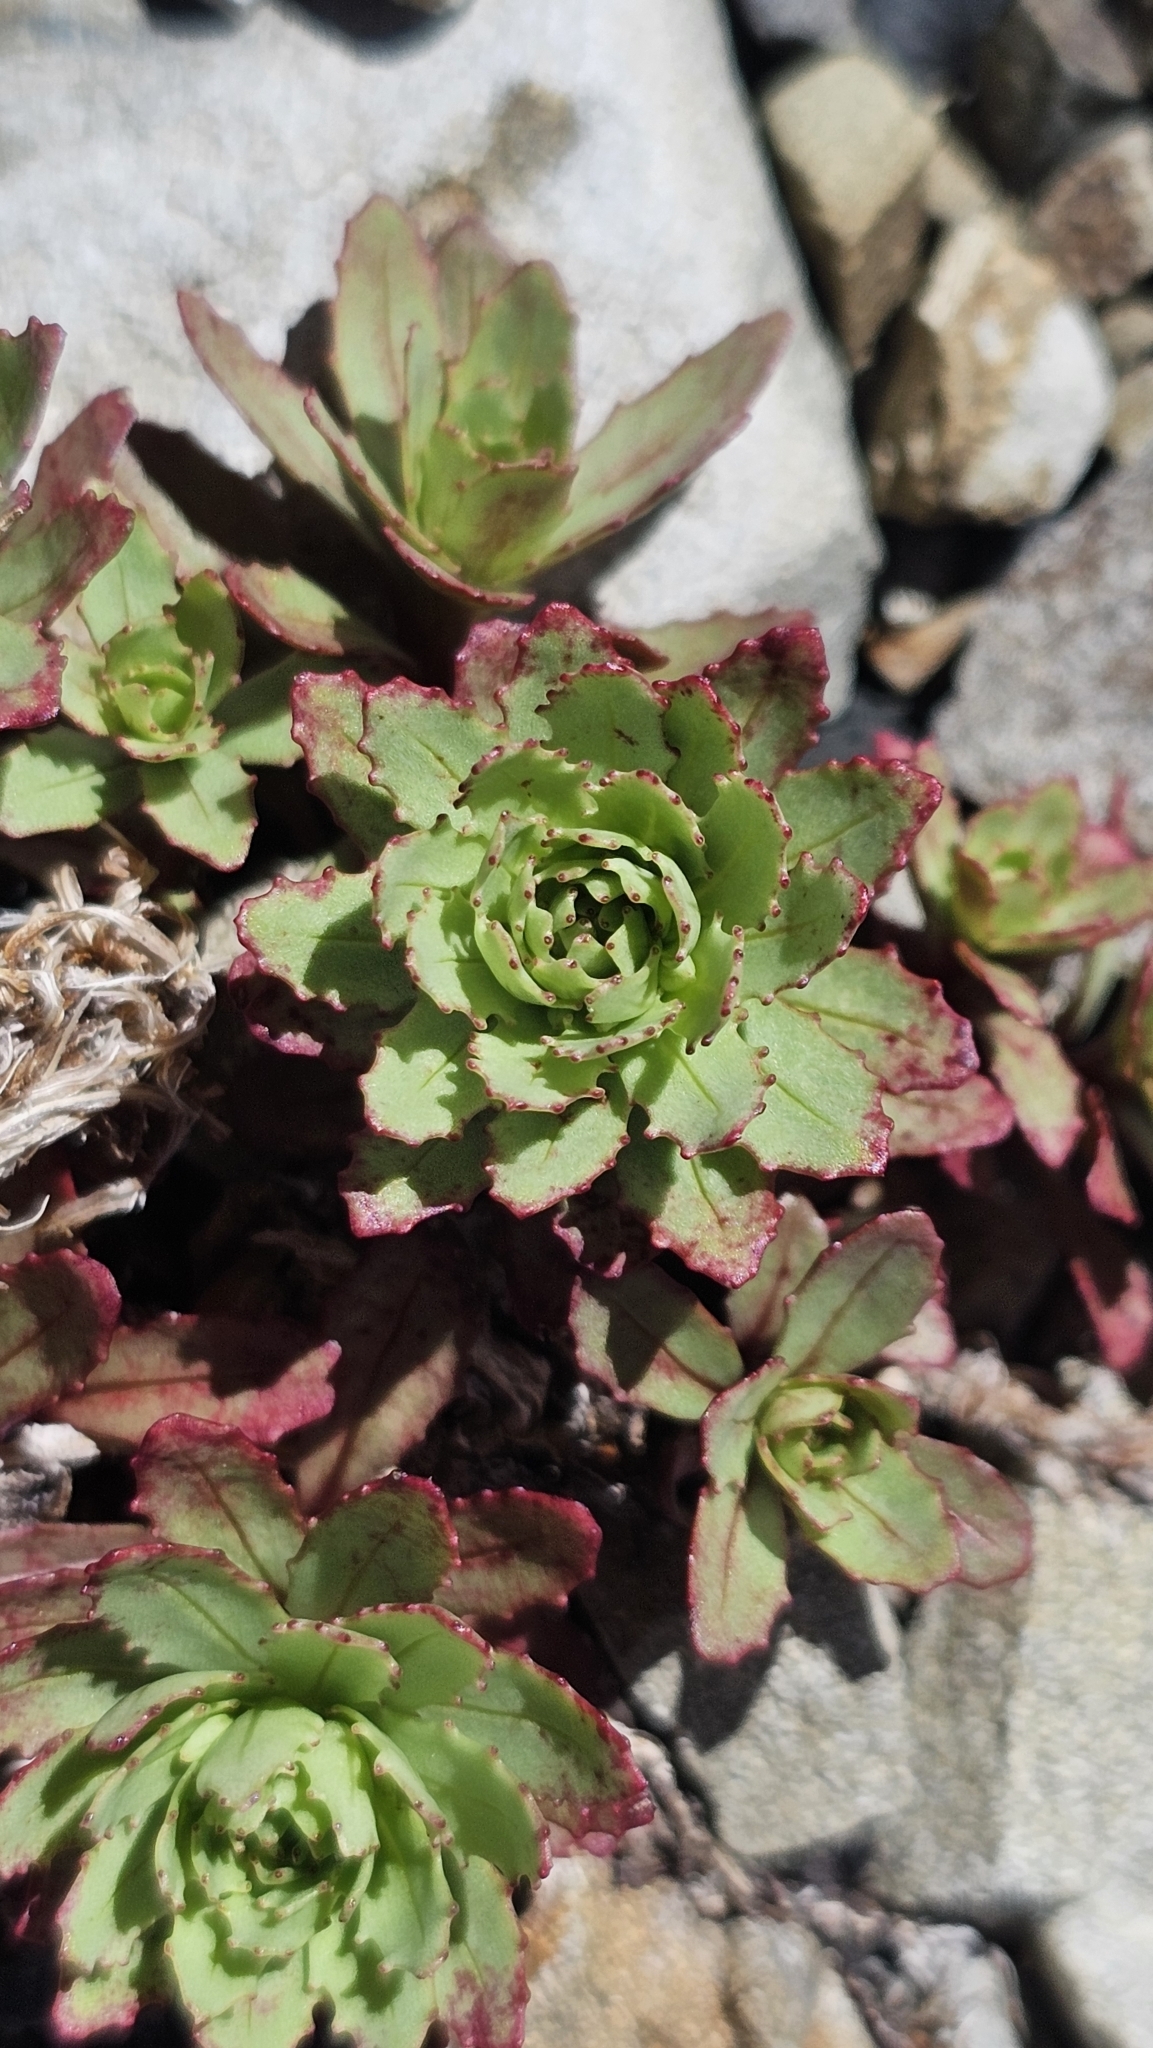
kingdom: Plantae
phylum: Tracheophyta
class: Magnoliopsida
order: Myrtales
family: Onagraceae
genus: Epilobium
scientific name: Epilobium pycnostachyum
